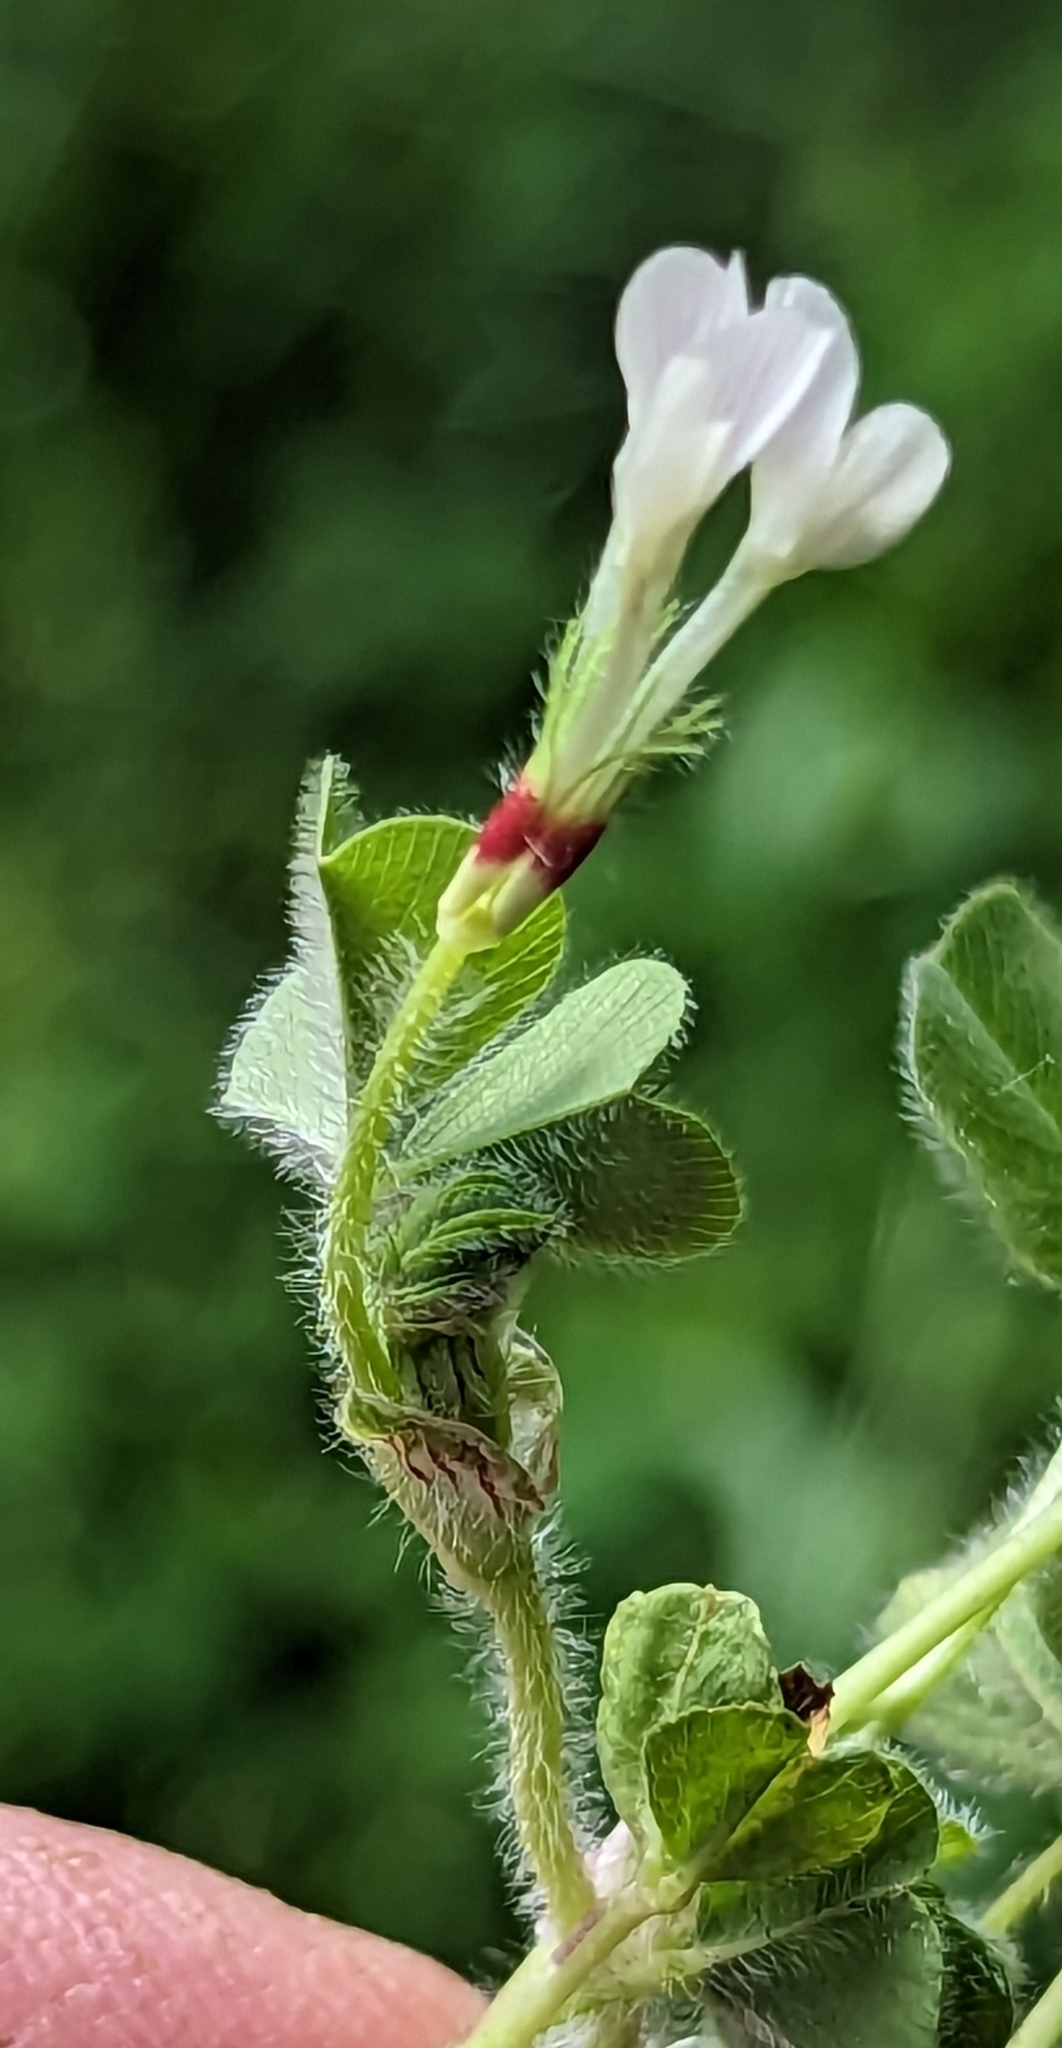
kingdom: Plantae
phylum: Tracheophyta
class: Magnoliopsida
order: Fabales
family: Fabaceae
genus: Trifolium
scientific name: Trifolium subterraneum
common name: Subterranean clover
